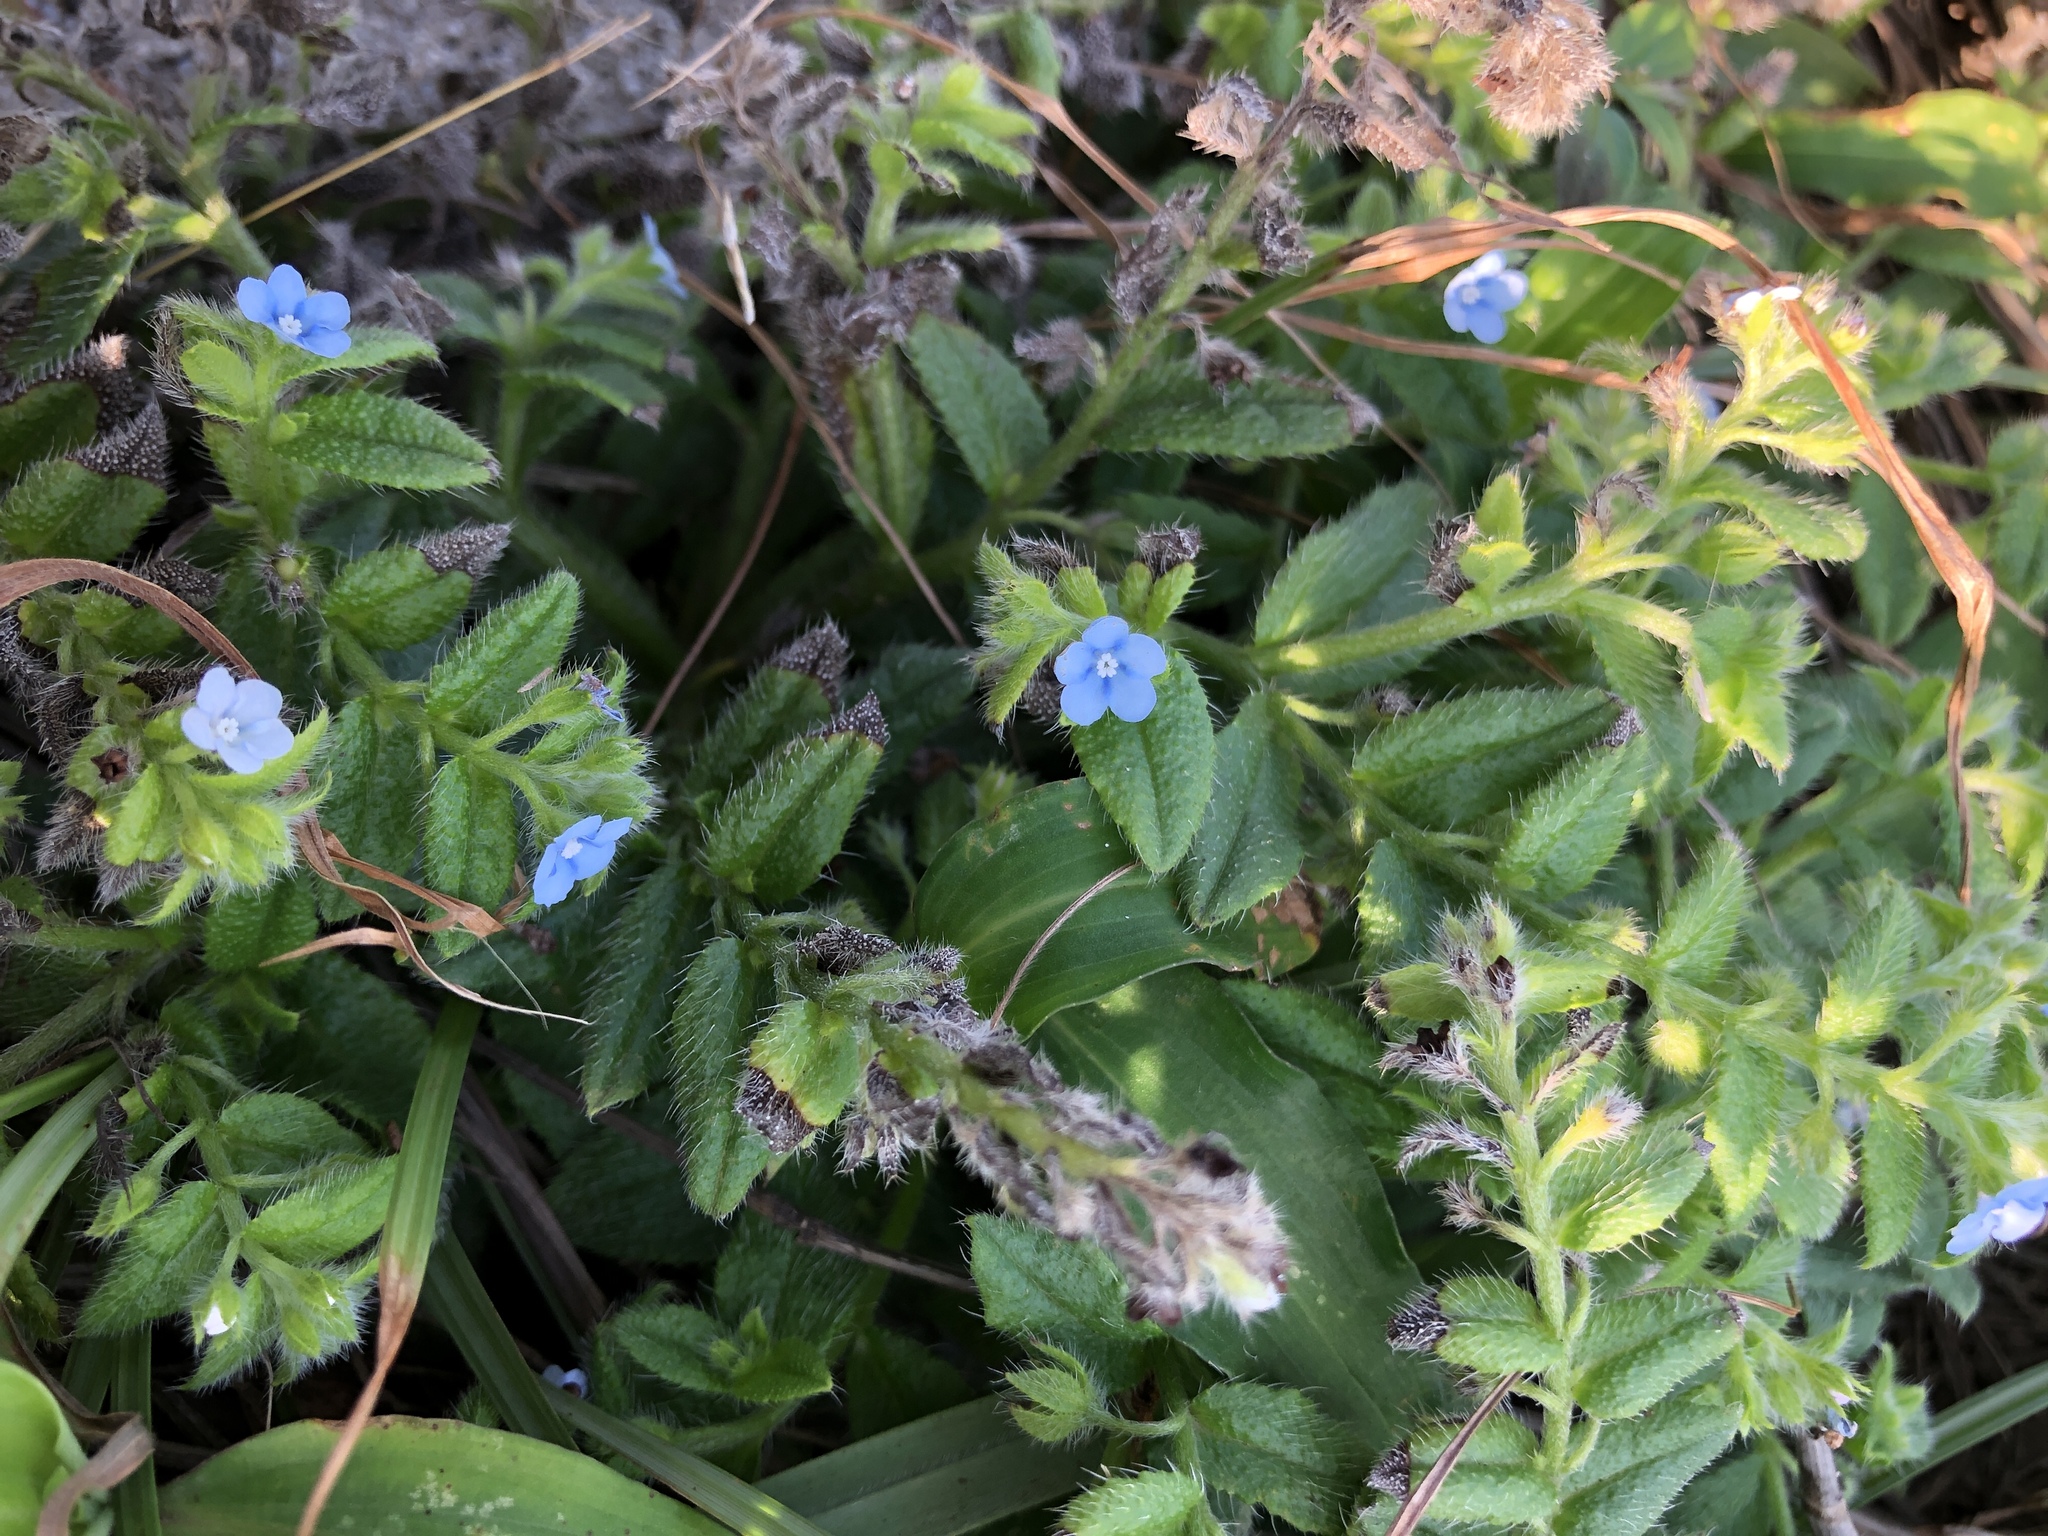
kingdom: Plantae
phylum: Tracheophyta
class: Magnoliopsida
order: Boraginales
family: Boraginaceae
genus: Thyrocarpus
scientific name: Thyrocarpus sampsonii
